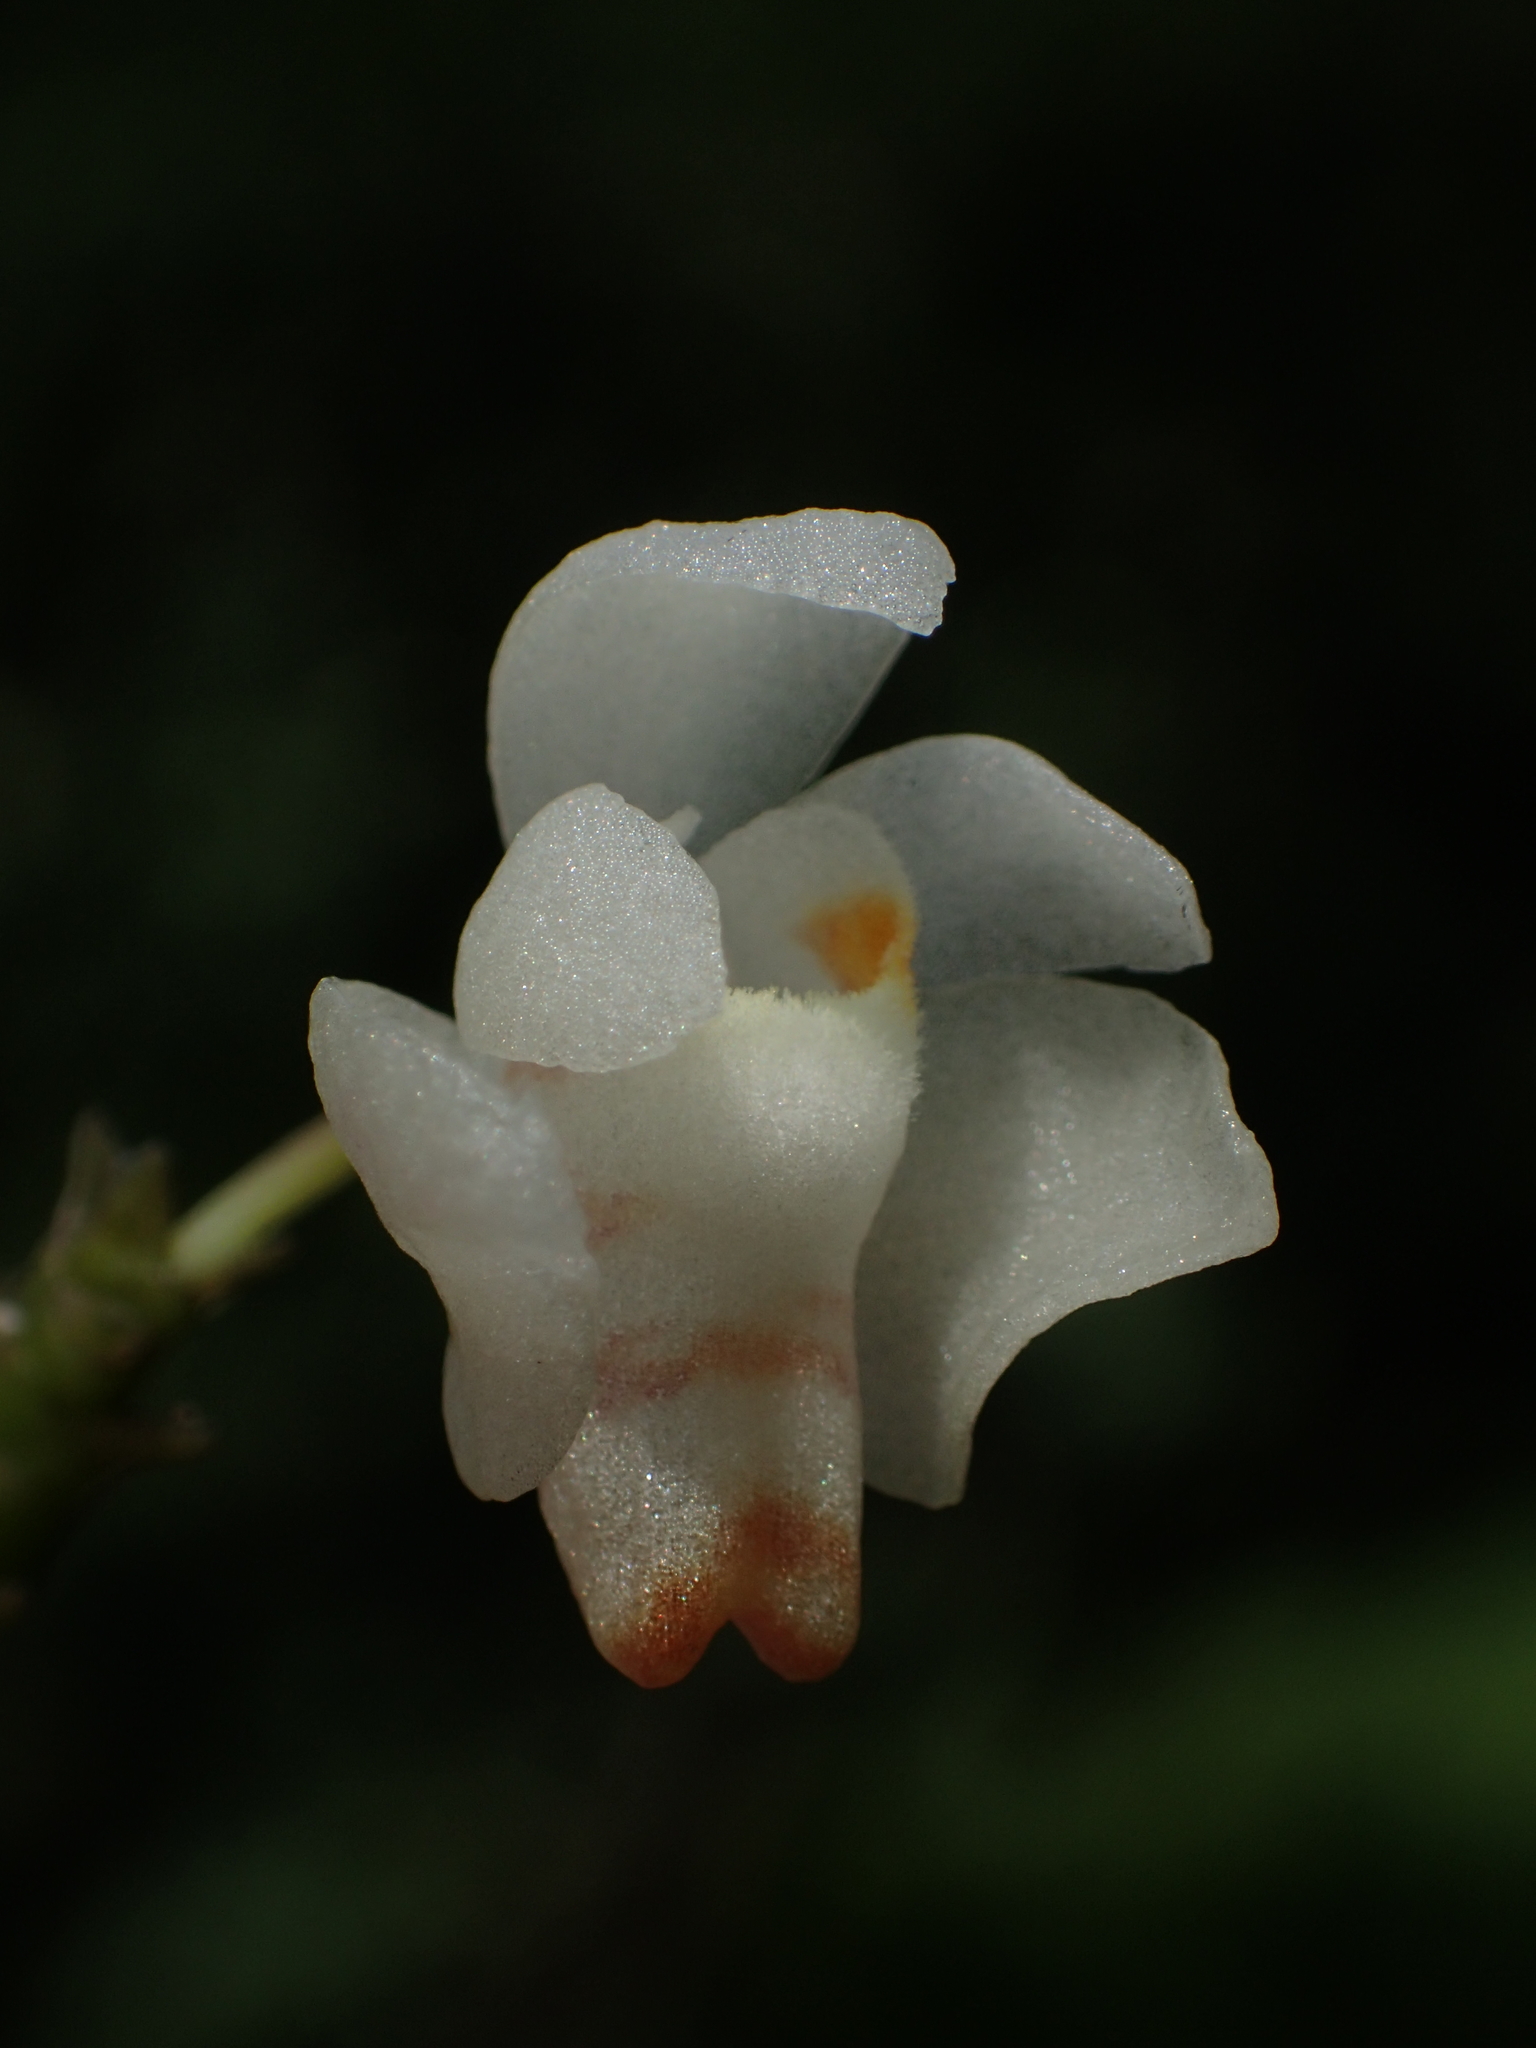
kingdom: Plantae
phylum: Tracheophyta
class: Liliopsida
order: Asparagales
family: Orchidaceae
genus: Thrixspermum
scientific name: Thrixspermum formosanum
